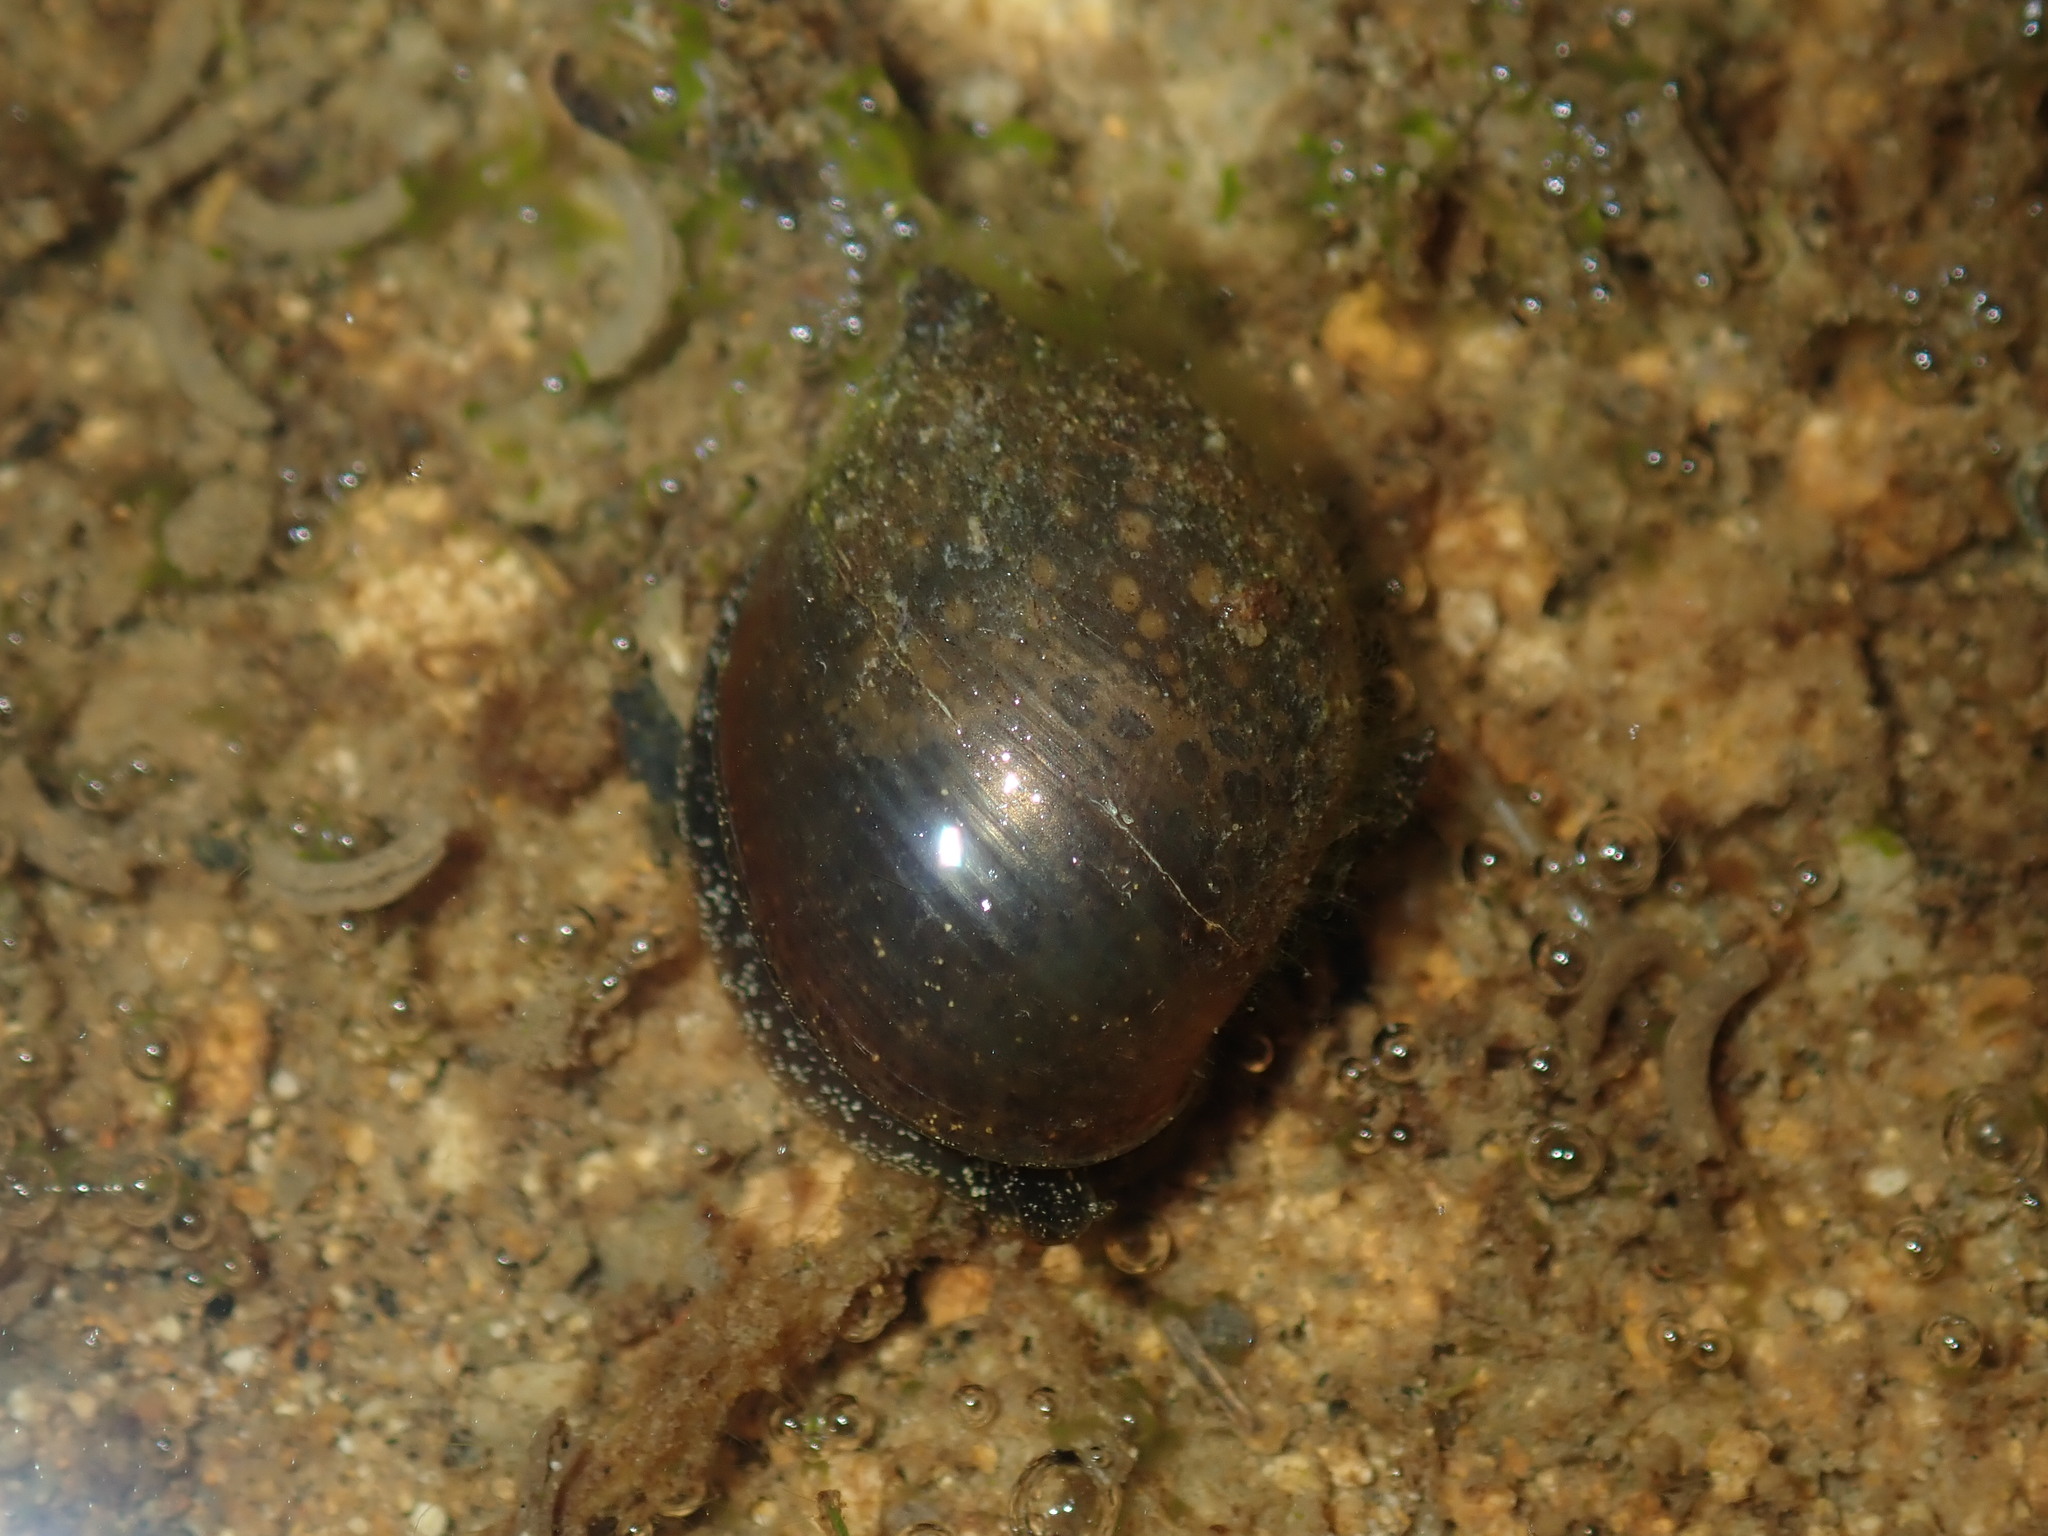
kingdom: Animalia
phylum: Mollusca
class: Gastropoda
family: Lymnaeidae
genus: Bullastra
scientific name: Bullastra lessoni
